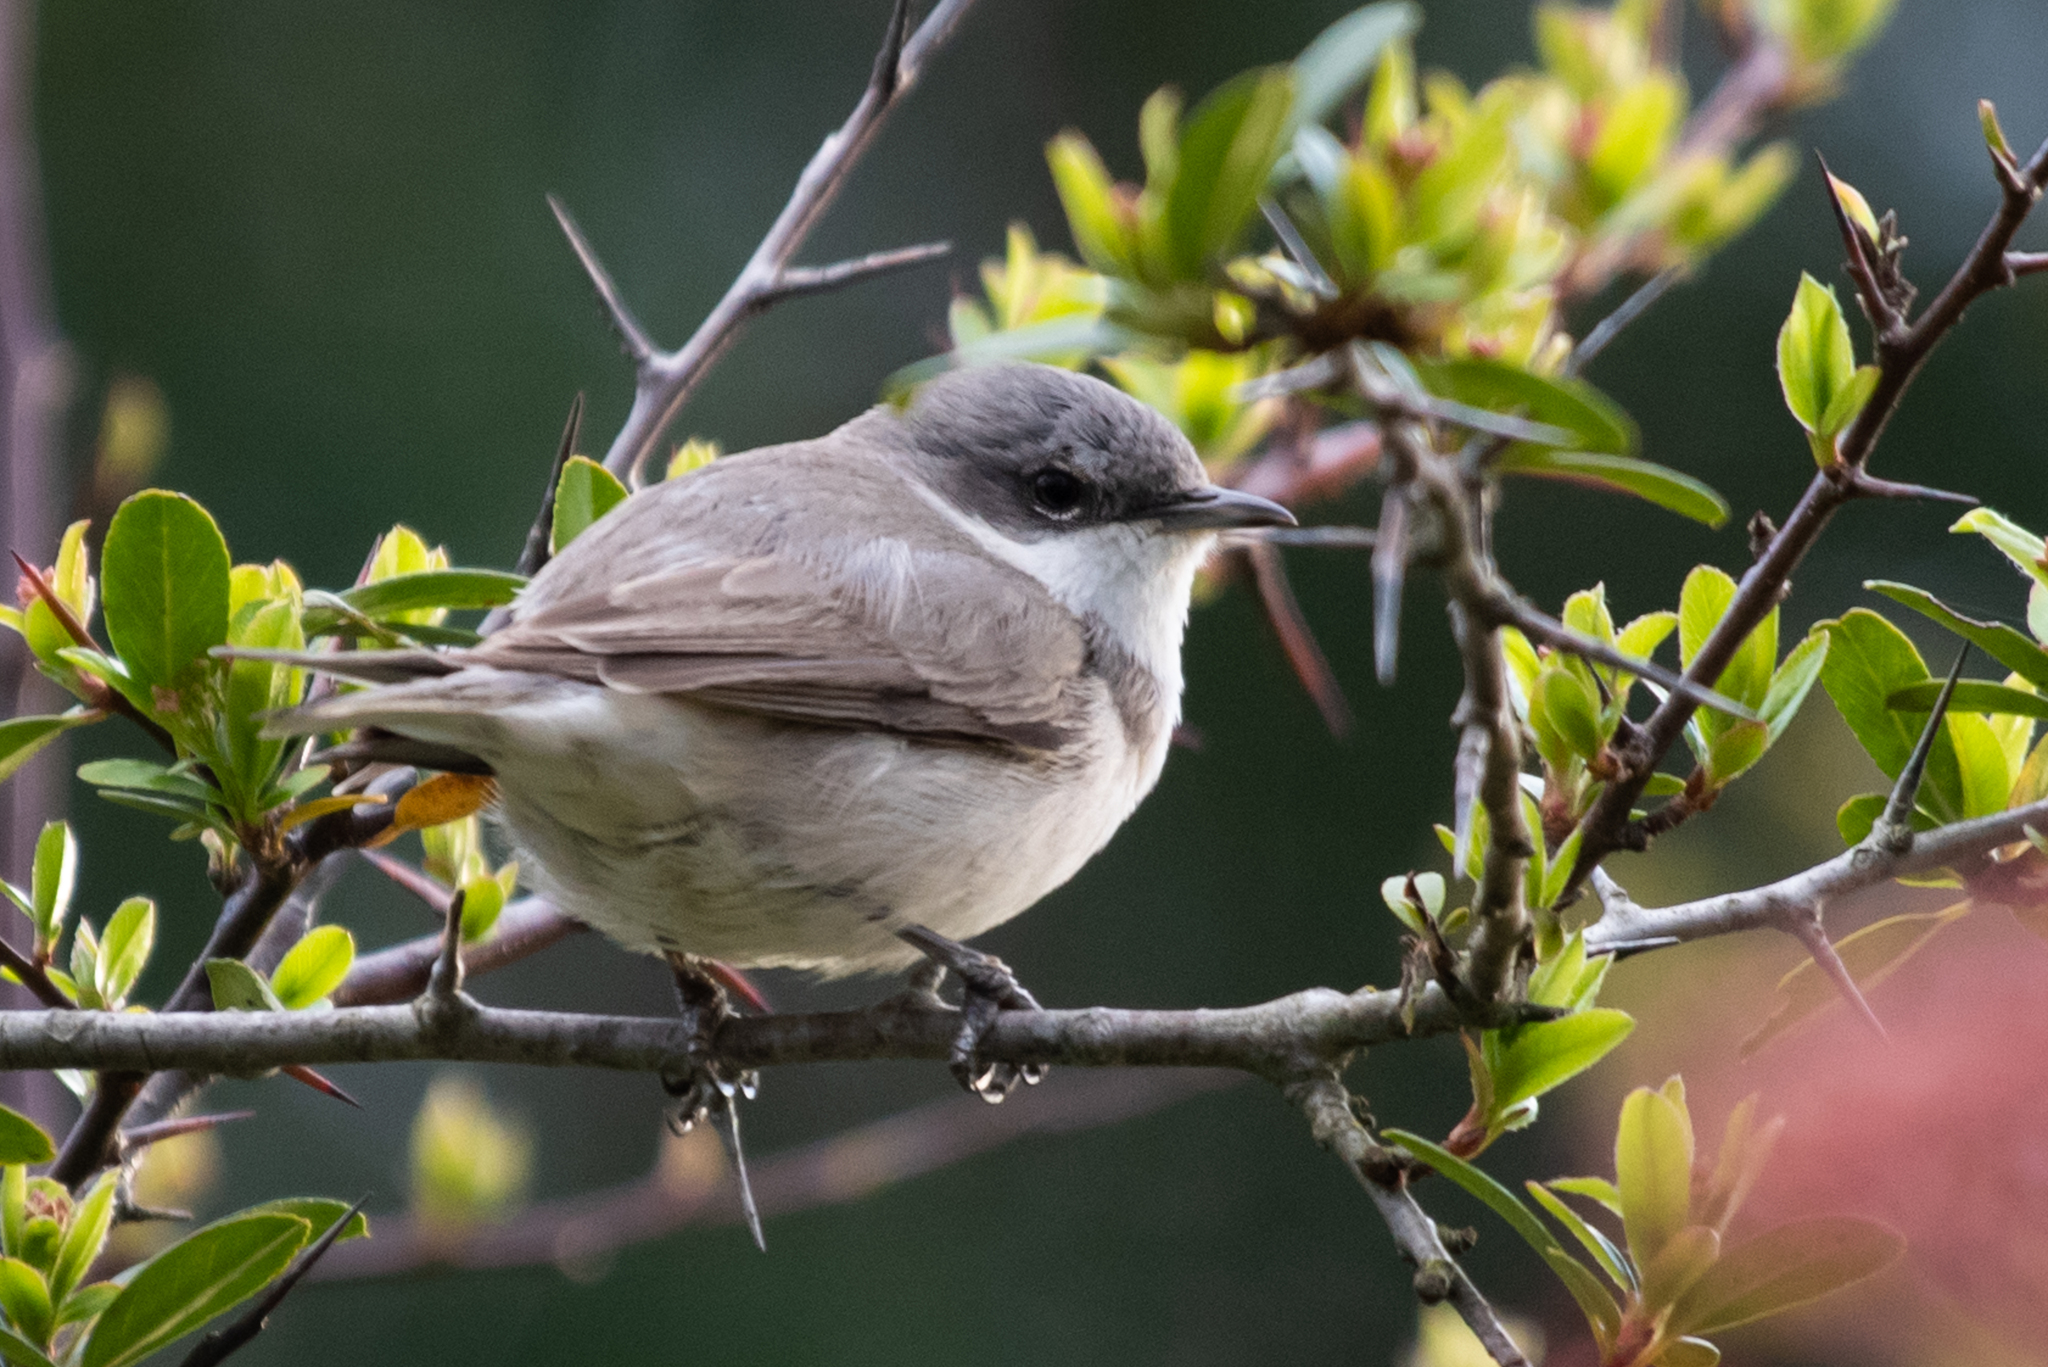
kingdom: Animalia
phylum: Chordata
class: Aves
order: Passeriformes
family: Sylviidae
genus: Sylvia
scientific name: Sylvia curruca
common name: Lesser whitethroat
